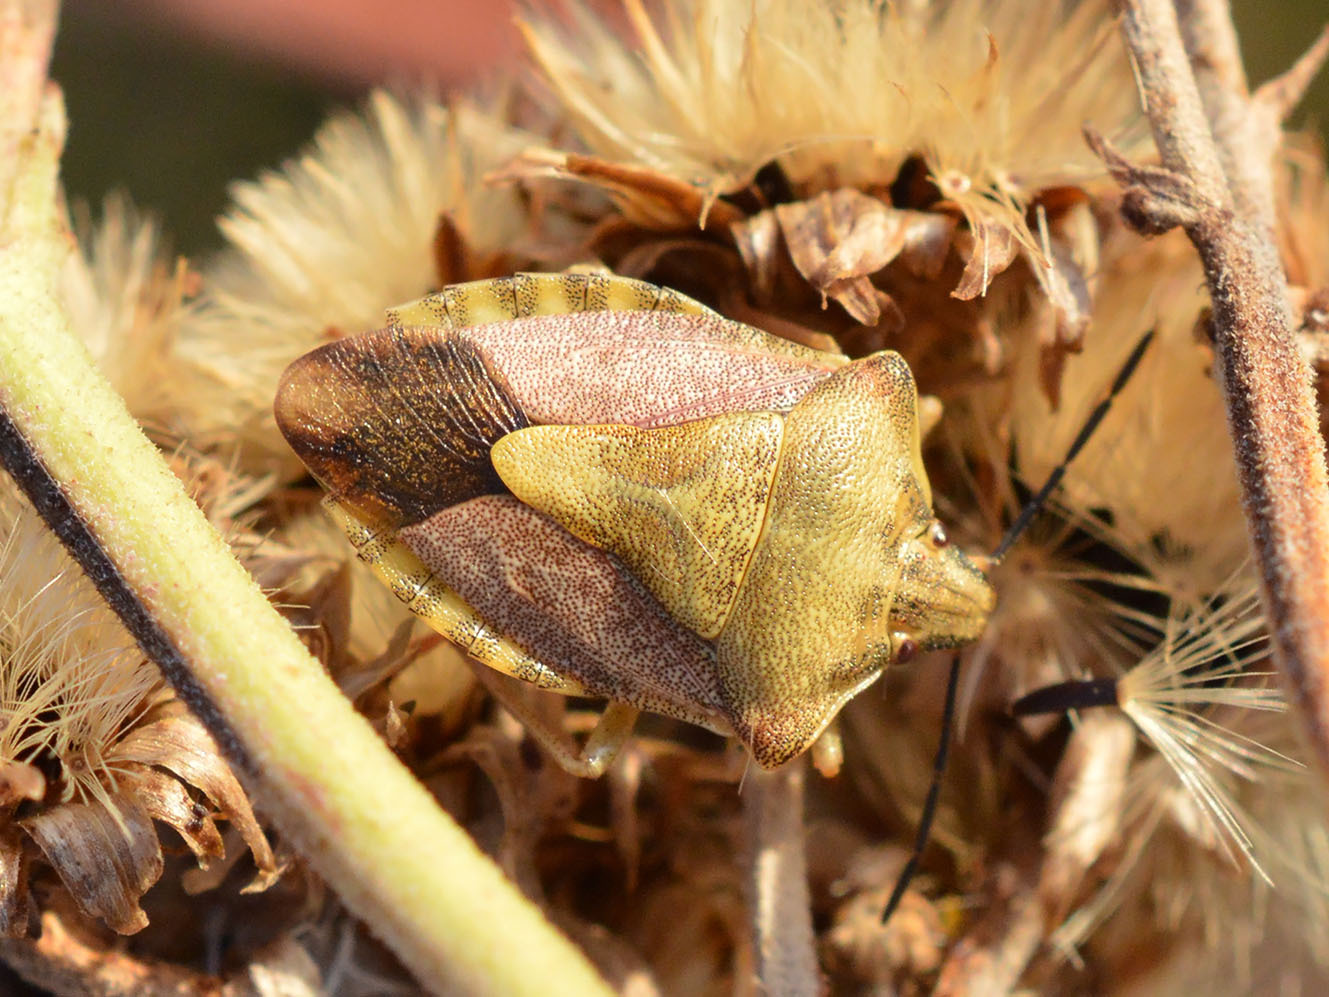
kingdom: Animalia
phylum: Arthropoda
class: Insecta
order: Hemiptera
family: Pentatomidae
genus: Carpocoris
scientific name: Carpocoris purpureipennis
